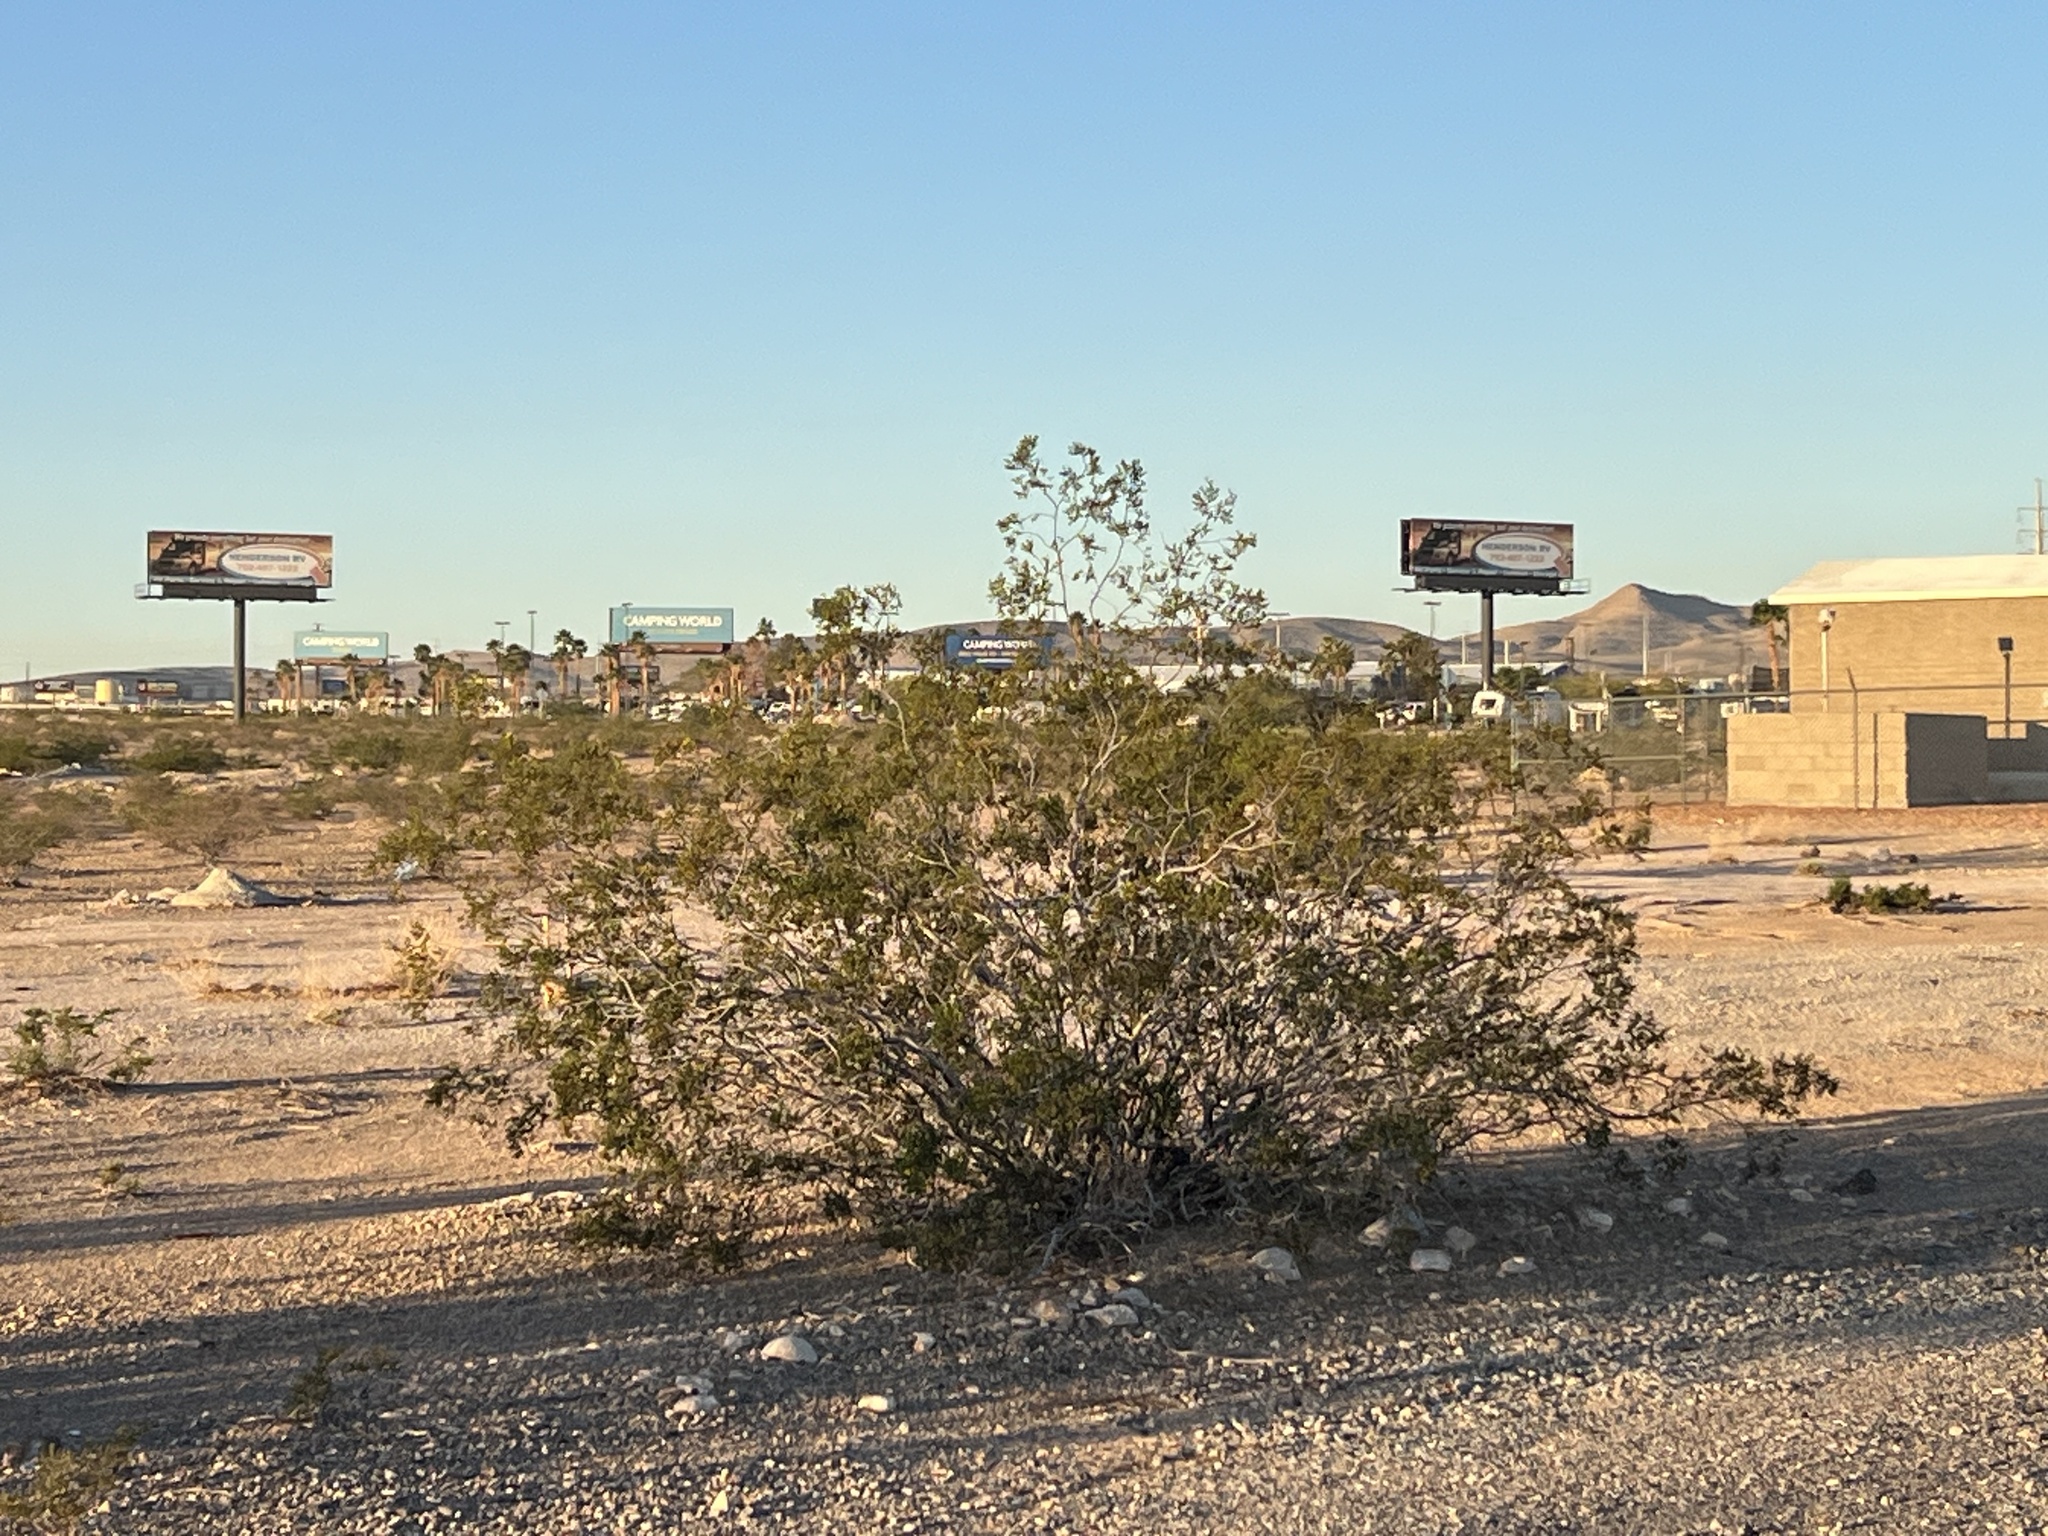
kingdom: Plantae
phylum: Tracheophyta
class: Magnoliopsida
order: Zygophyllales
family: Zygophyllaceae
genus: Larrea
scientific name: Larrea tridentata
